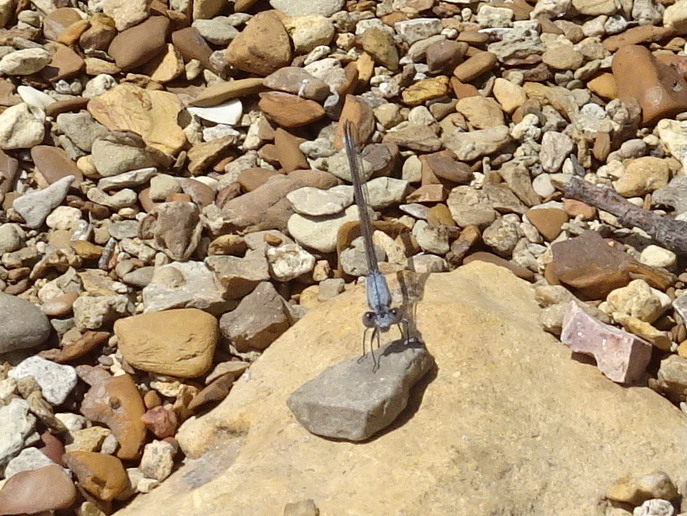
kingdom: Animalia
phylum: Arthropoda
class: Insecta
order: Odonata
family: Coenagrionidae
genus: Argia
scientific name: Argia moesta
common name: Powdered dancer
